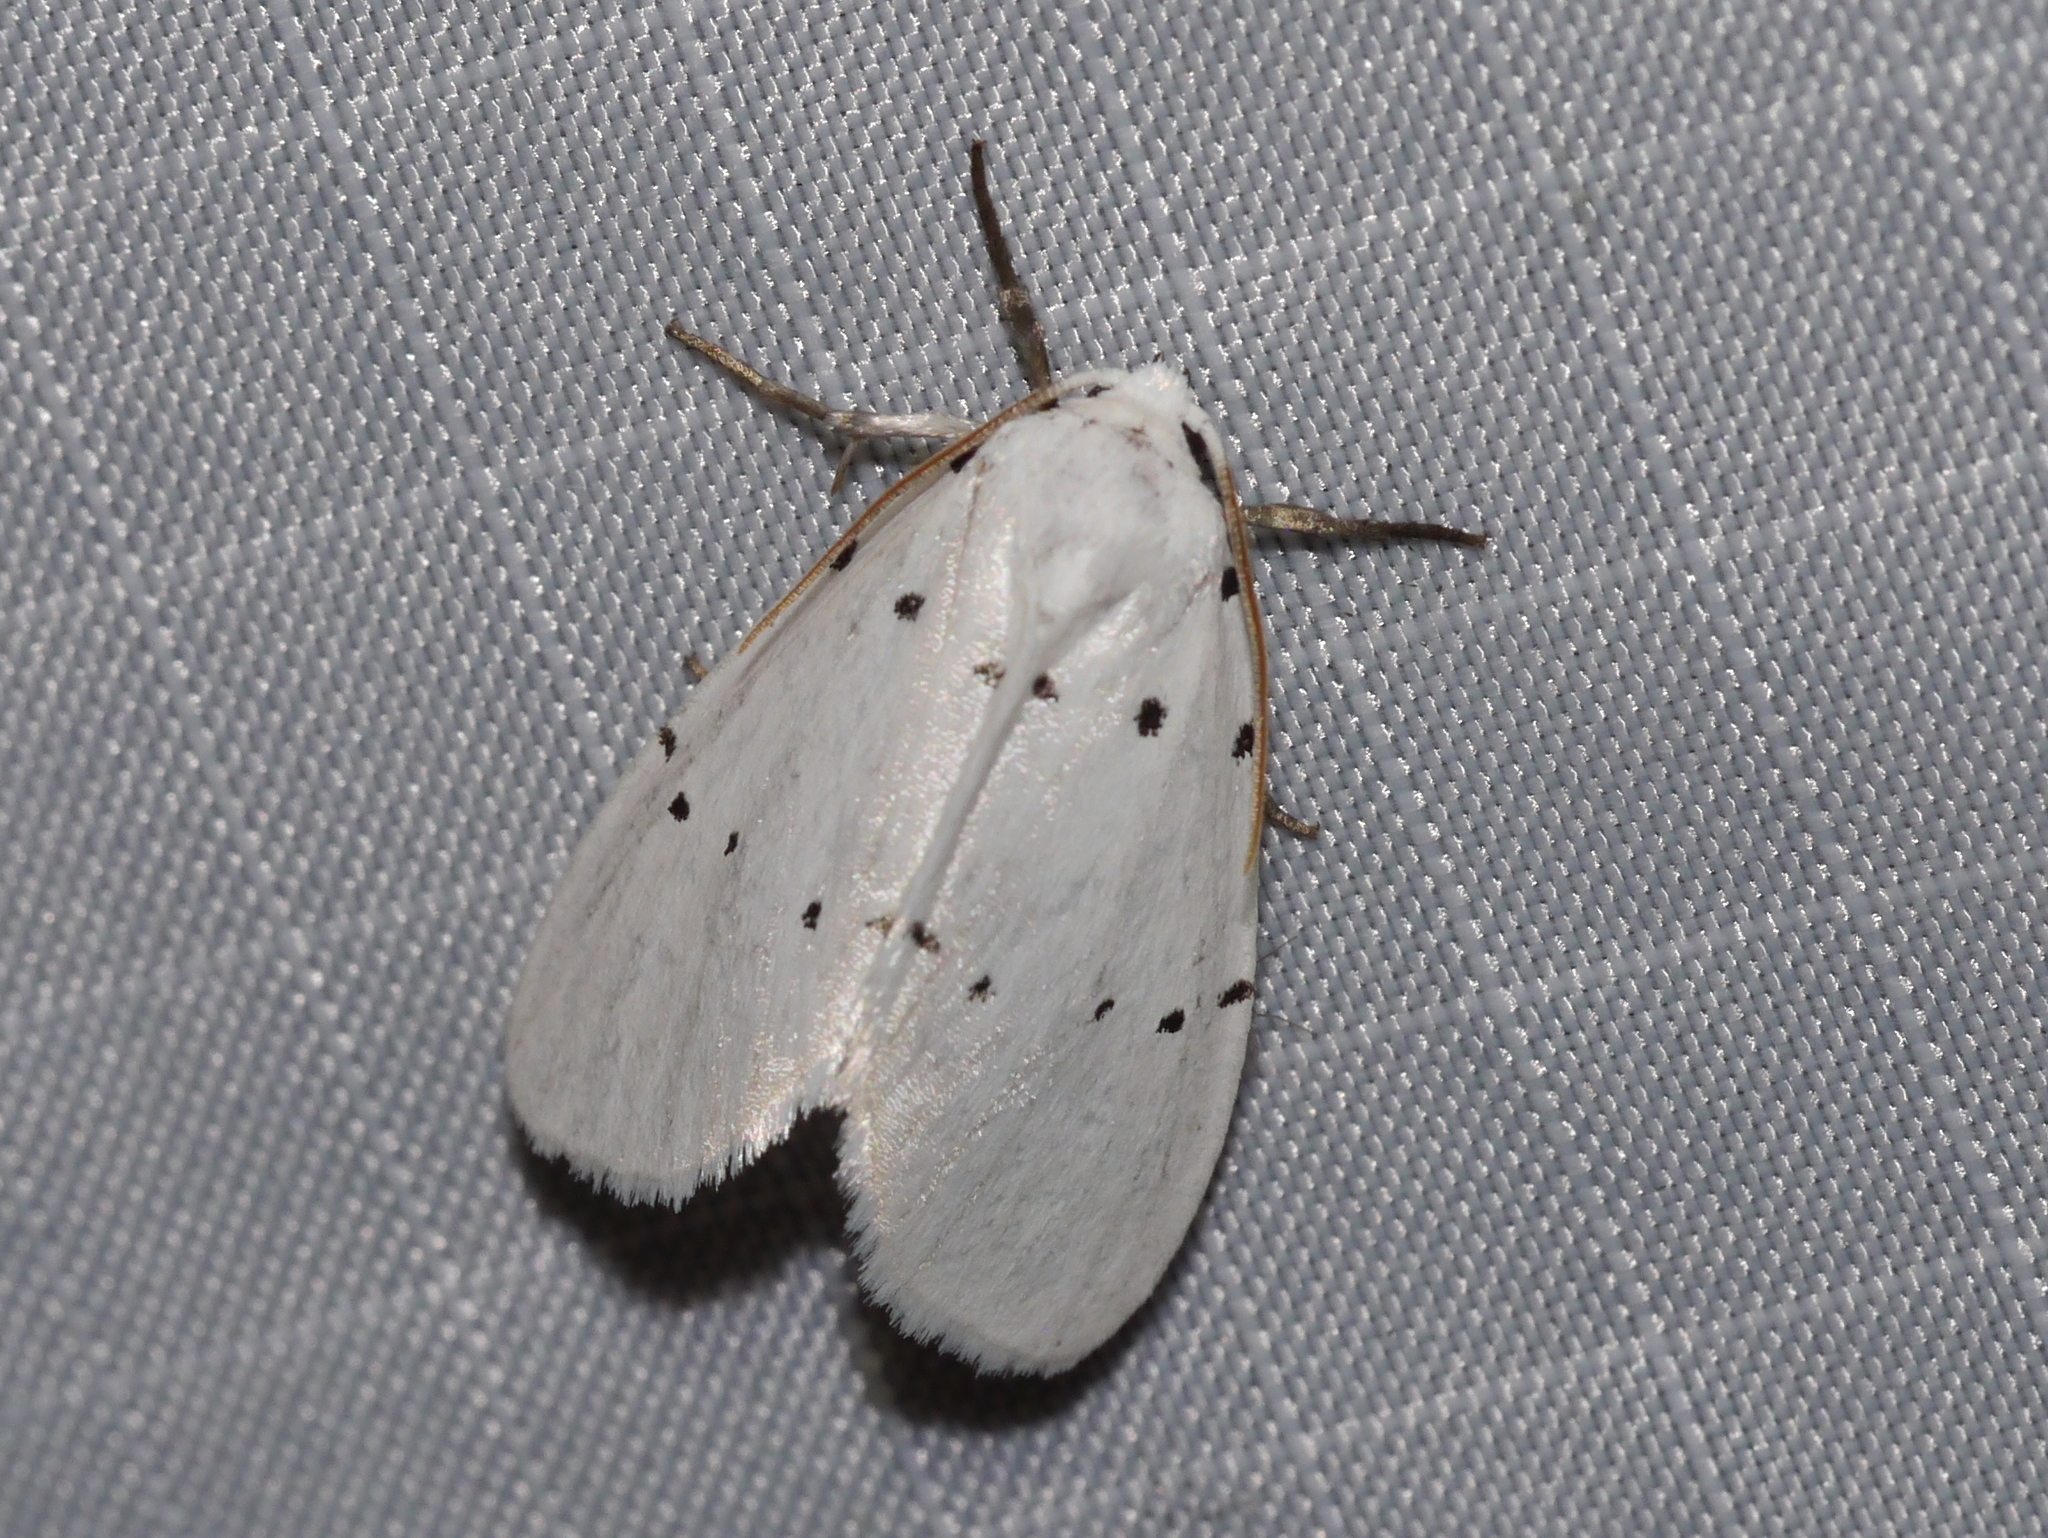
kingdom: Animalia
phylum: Arthropoda
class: Insecta
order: Lepidoptera
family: Noctuidae
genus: Homolagoa
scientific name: Homolagoa grotelliformis
